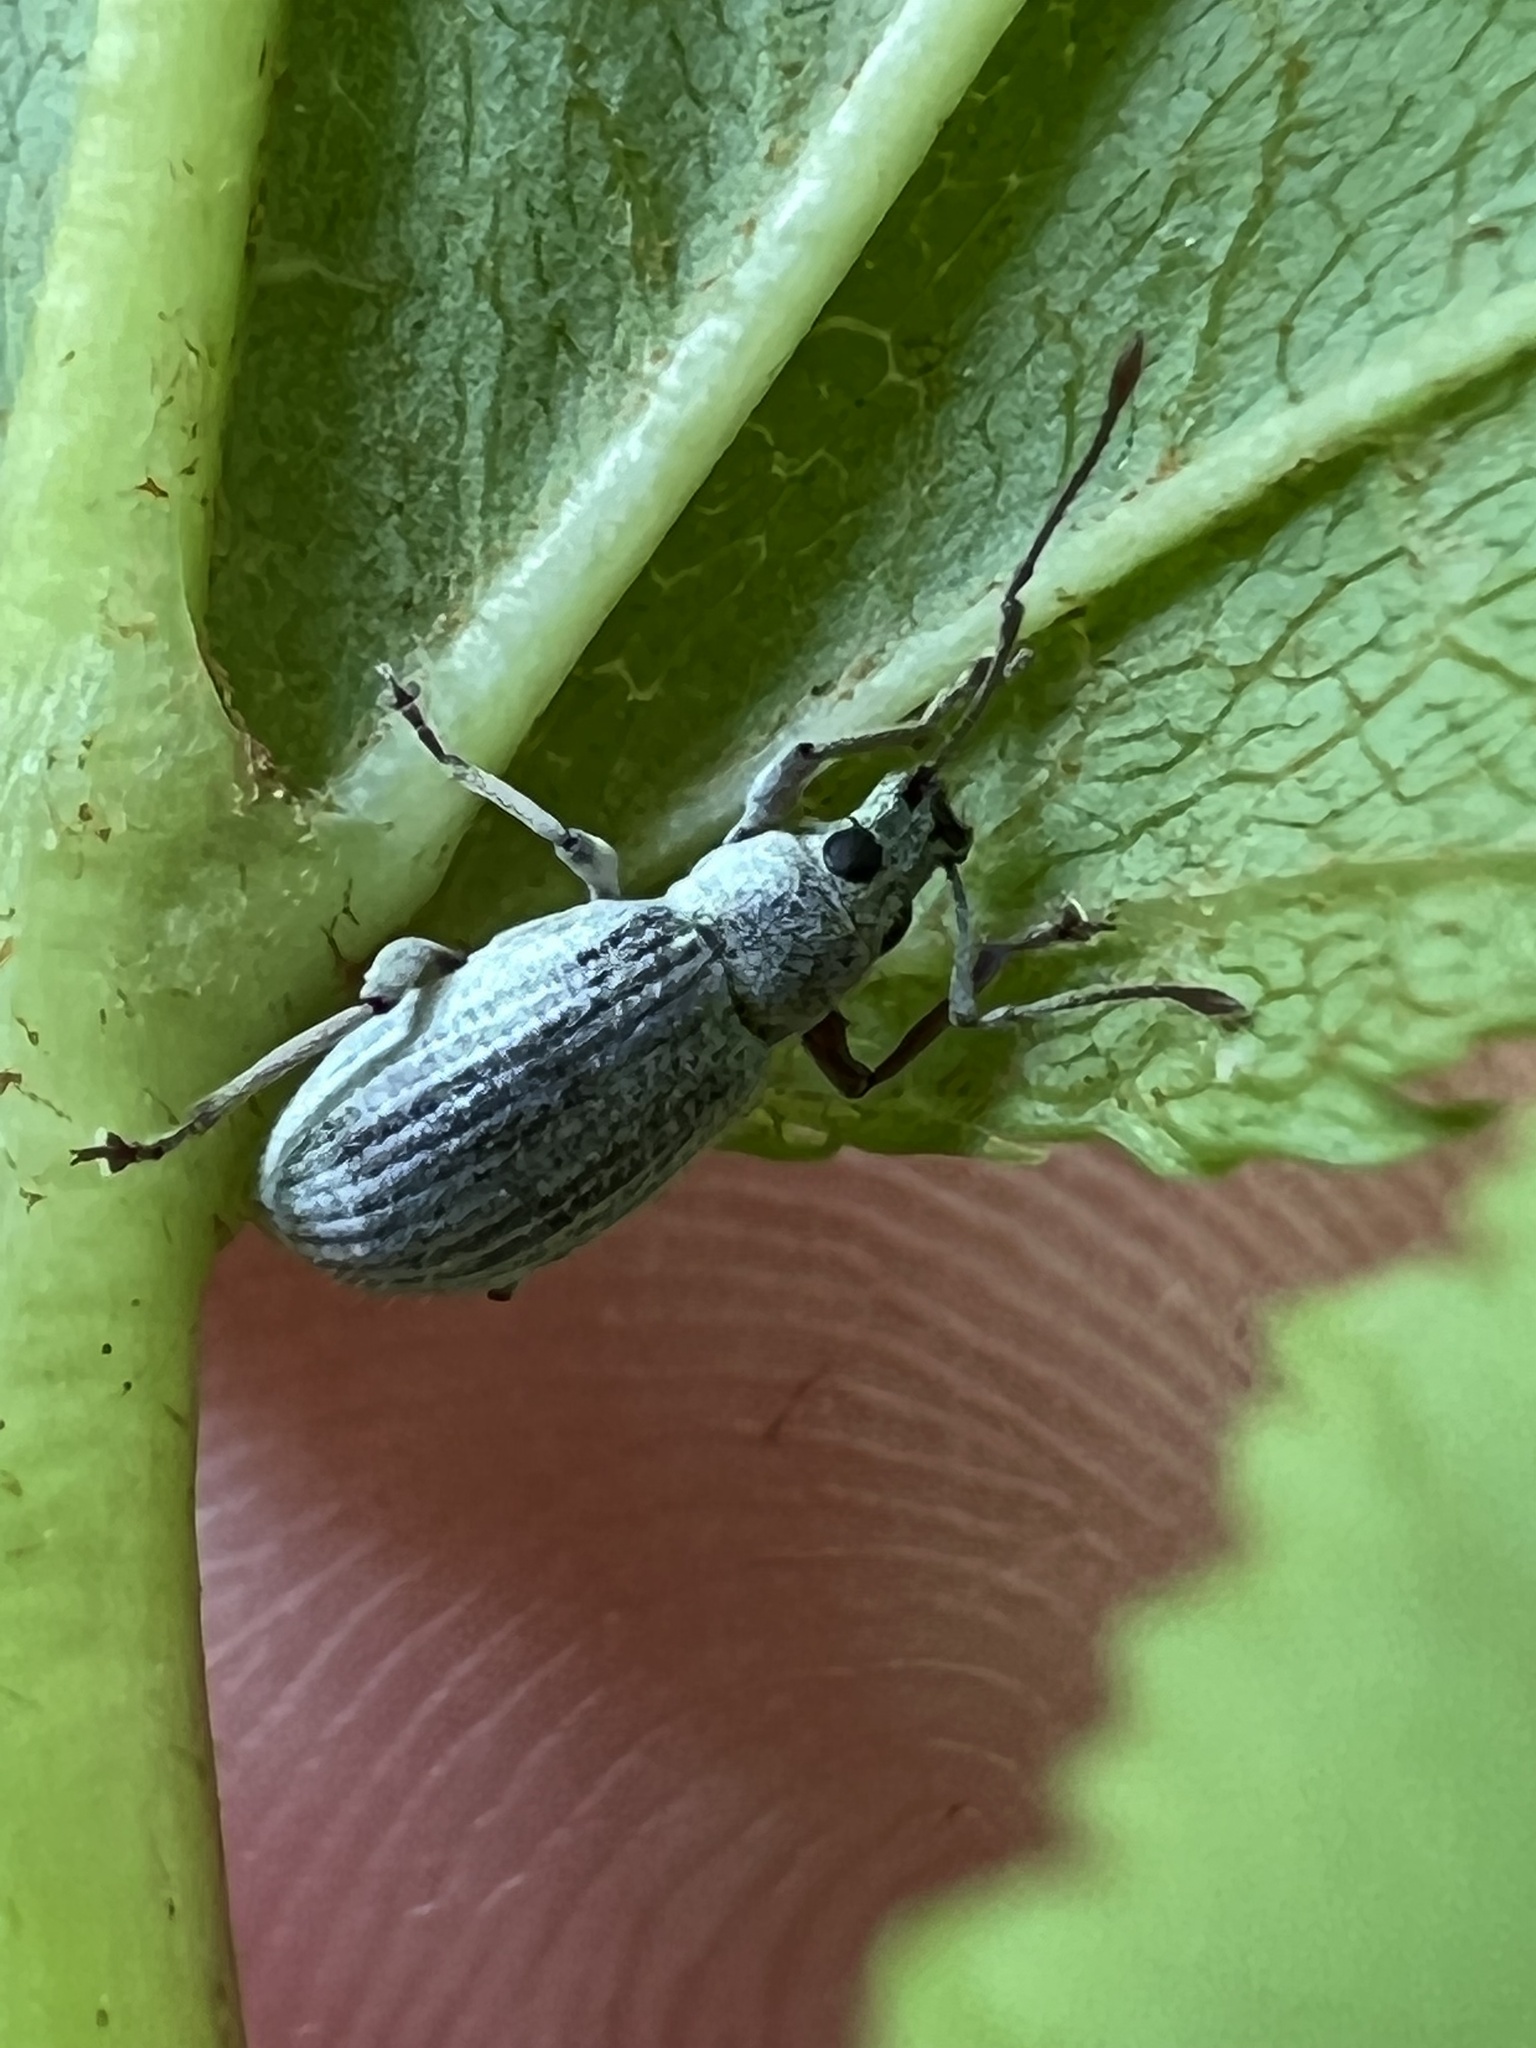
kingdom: Animalia
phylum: Arthropoda
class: Insecta
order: Coleoptera
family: Curculionidae
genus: Cyrtepistomus
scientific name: Cyrtepistomus castaneus
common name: Weevil
